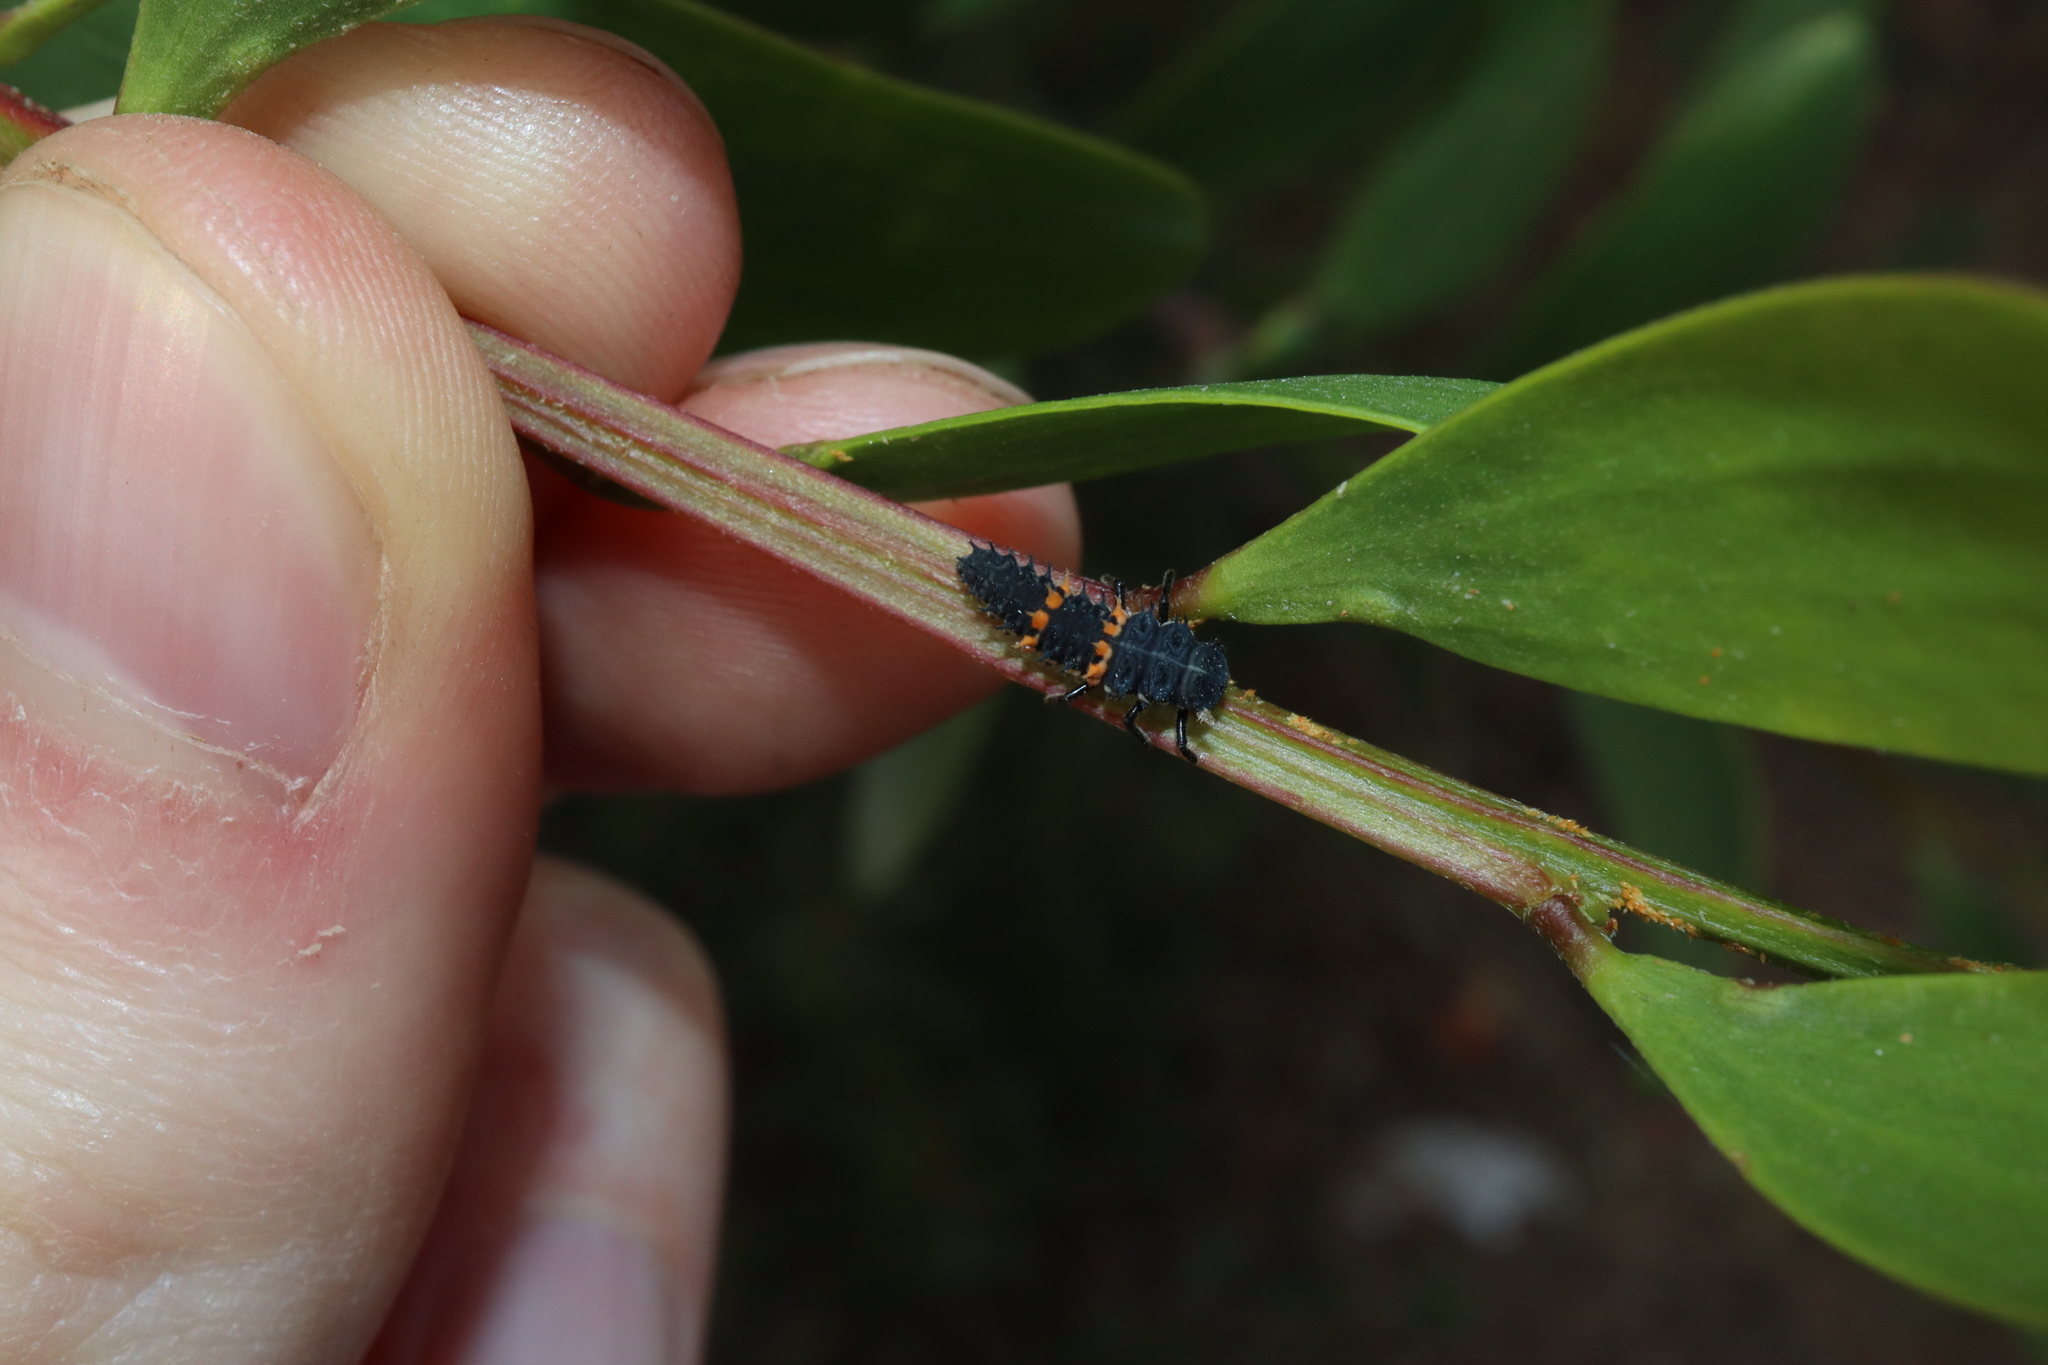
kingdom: Animalia
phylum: Arthropoda
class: Insecta
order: Coleoptera
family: Coccinellidae
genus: Harmonia
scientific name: Harmonia conformis
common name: Common spotted ladybird beetle
